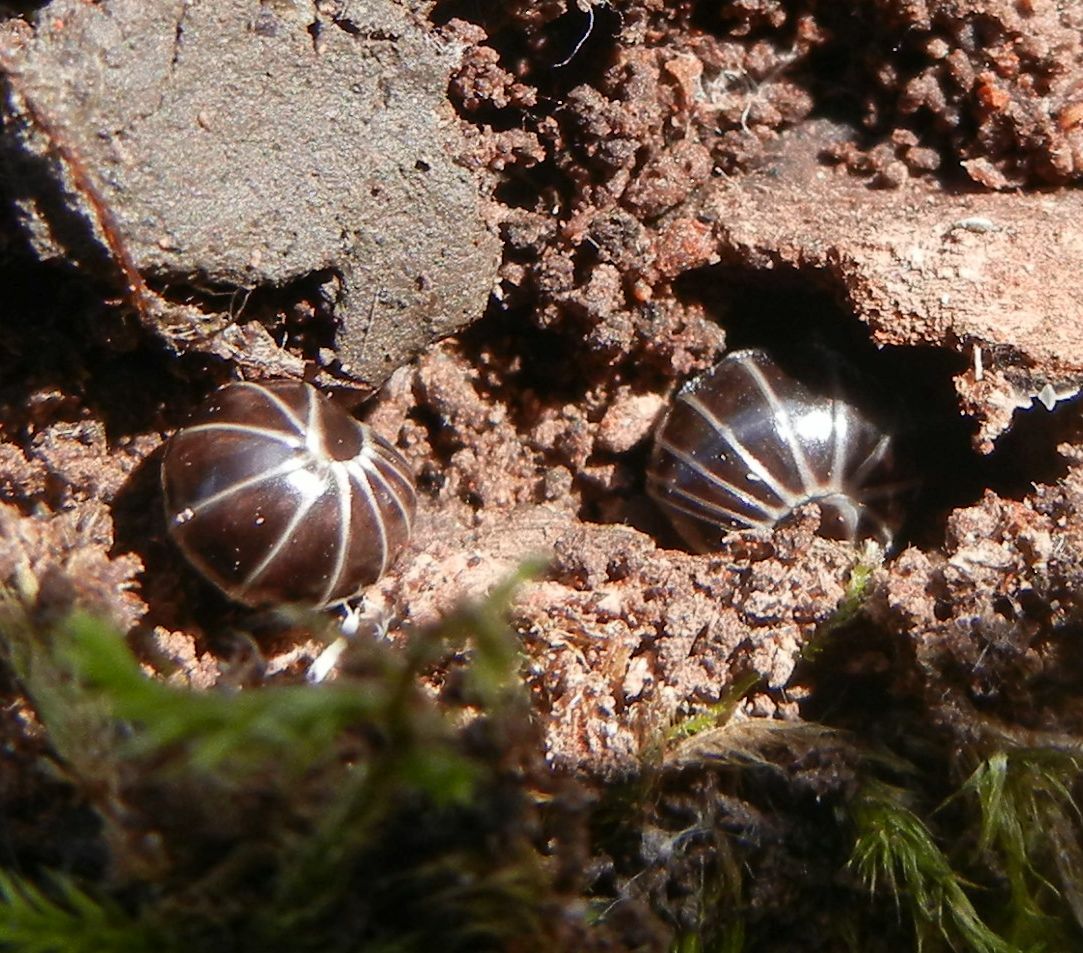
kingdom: Animalia
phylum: Arthropoda
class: Diplopoda
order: Glomerida
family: Glomeridae
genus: Glomeris
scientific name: Glomeris marginata
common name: Bordered pill millipede
